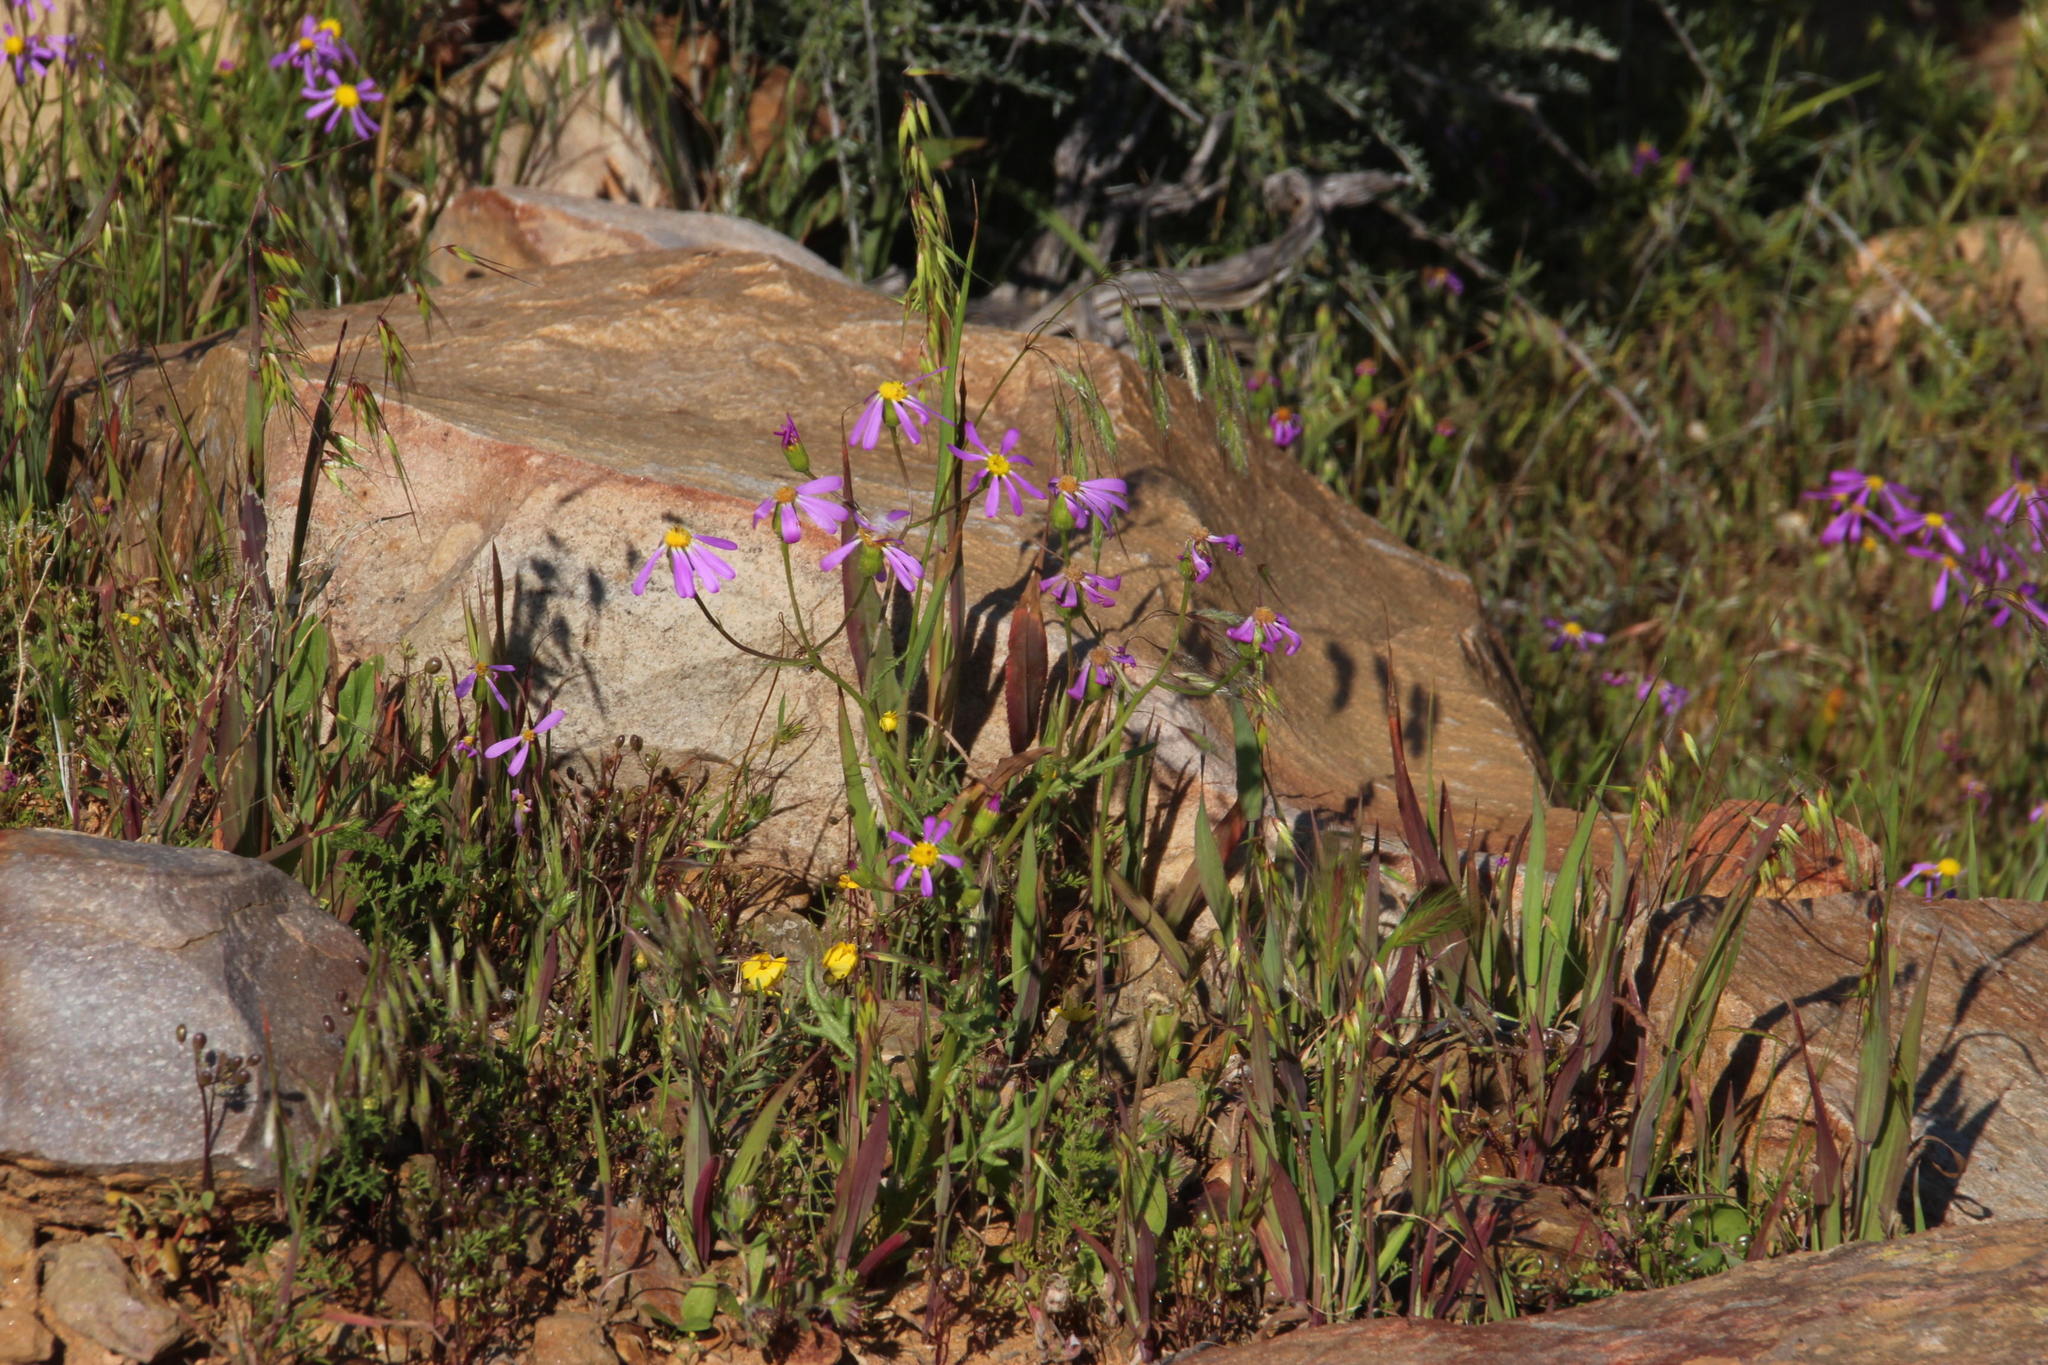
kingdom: Plantae
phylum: Tracheophyta
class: Magnoliopsida
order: Asterales
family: Asteraceae
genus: Senecio
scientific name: Senecio arenarius
